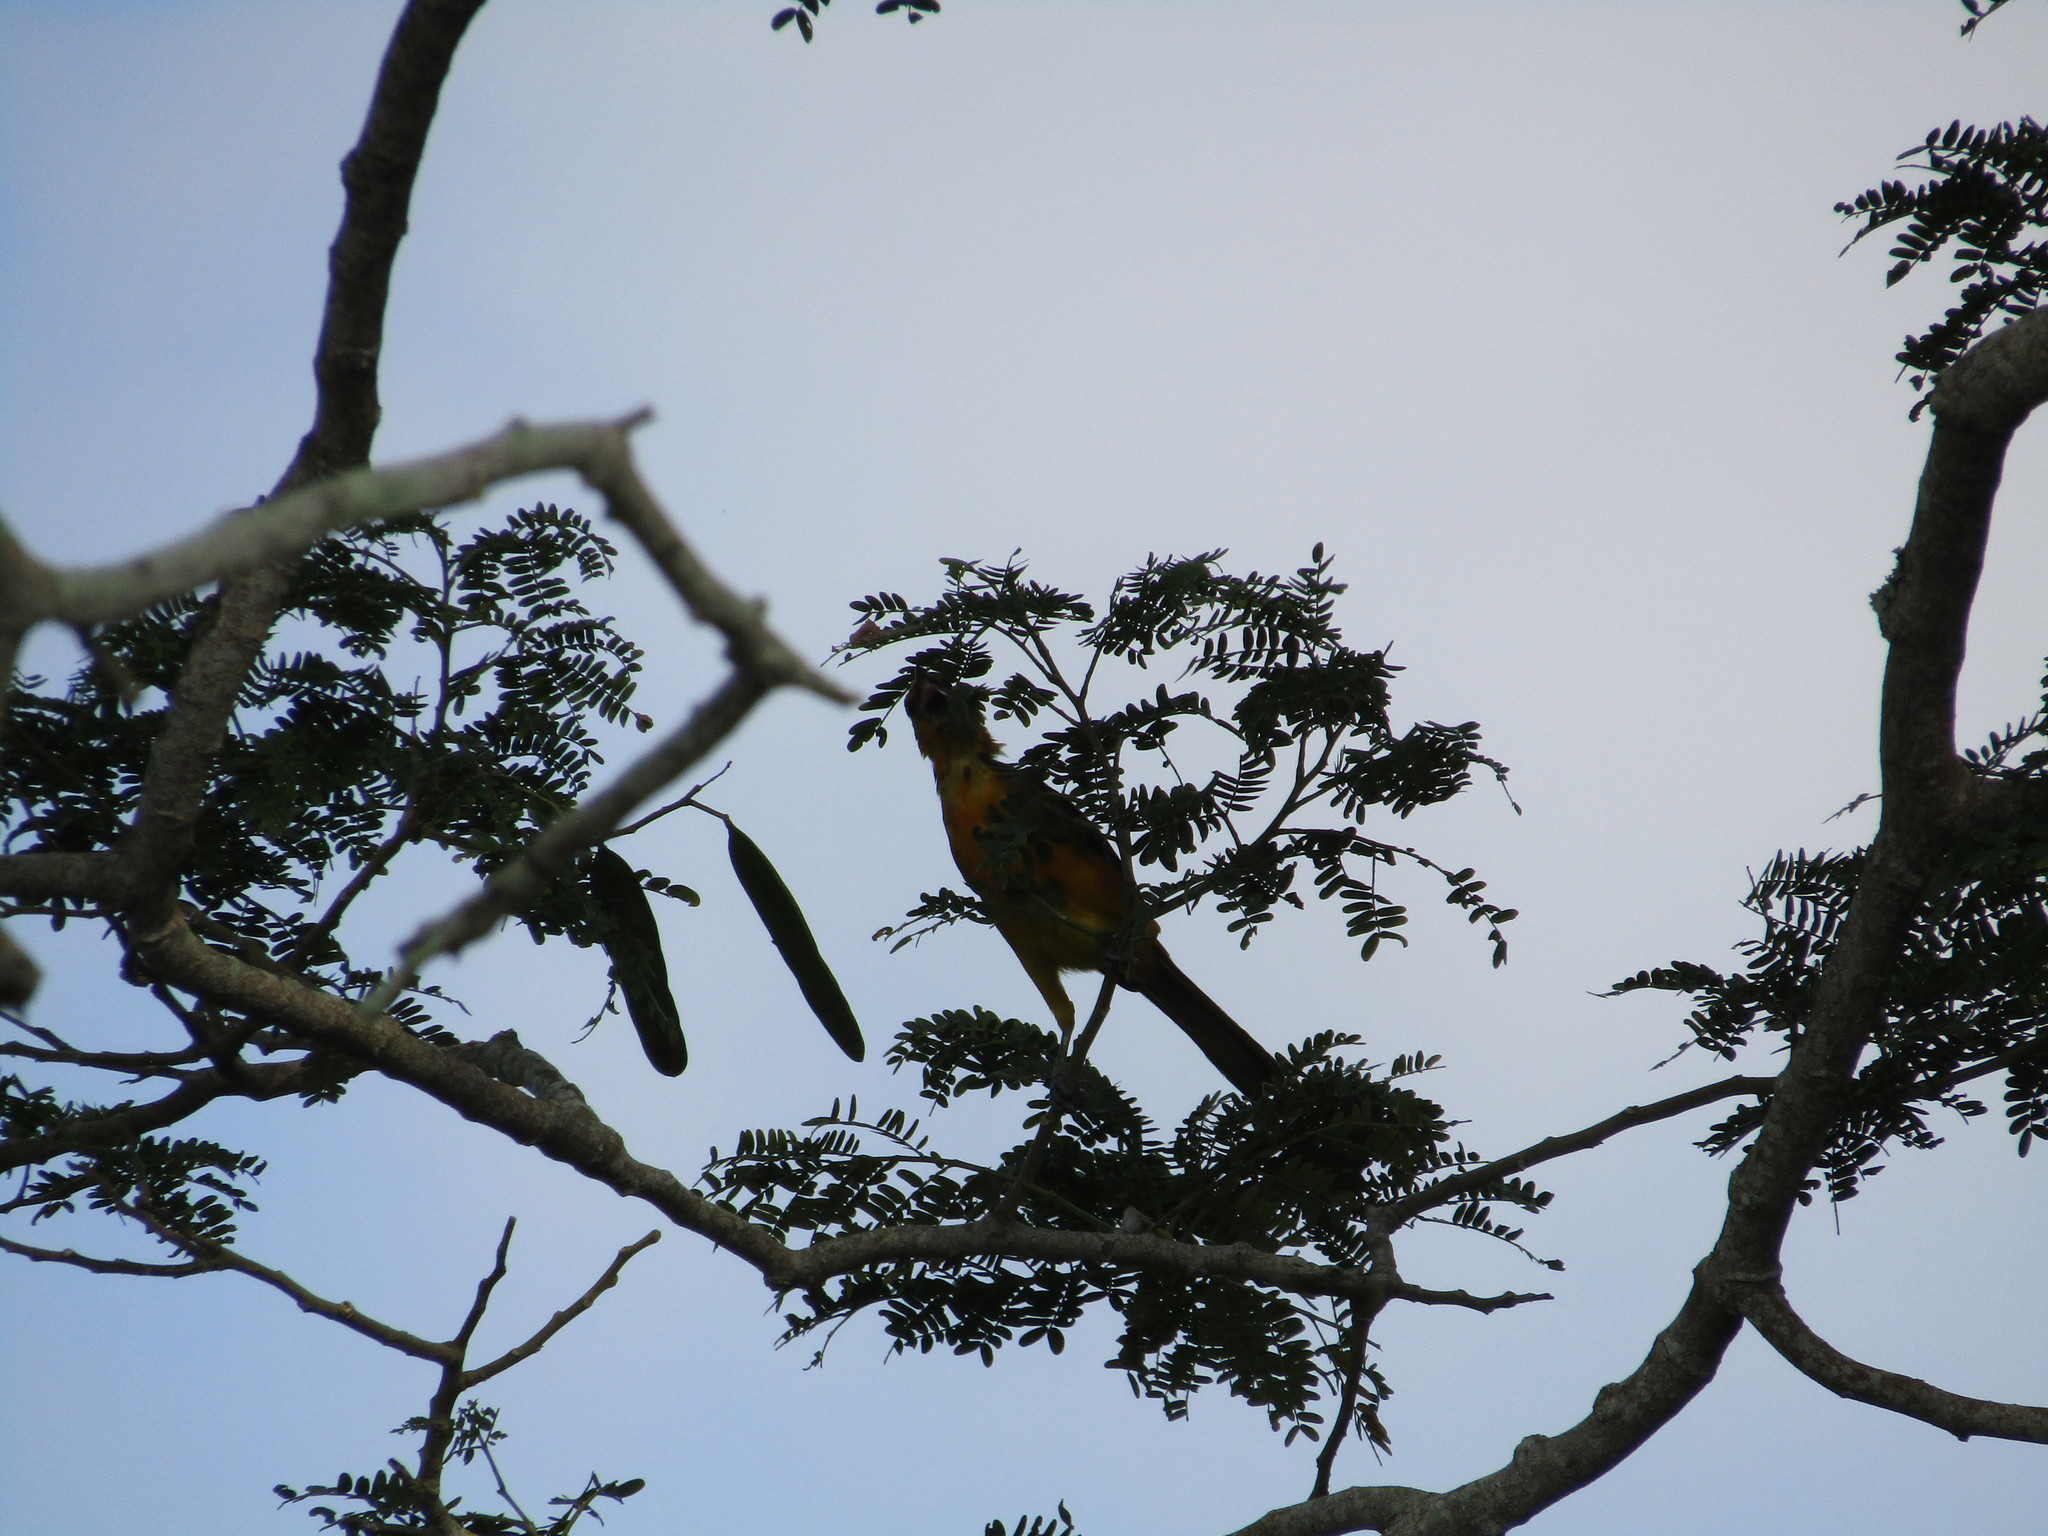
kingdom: Animalia
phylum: Chordata
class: Aves
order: Passeriformes
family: Icteridae
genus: Icterus
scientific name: Icterus gularis
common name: Altamira oriole
